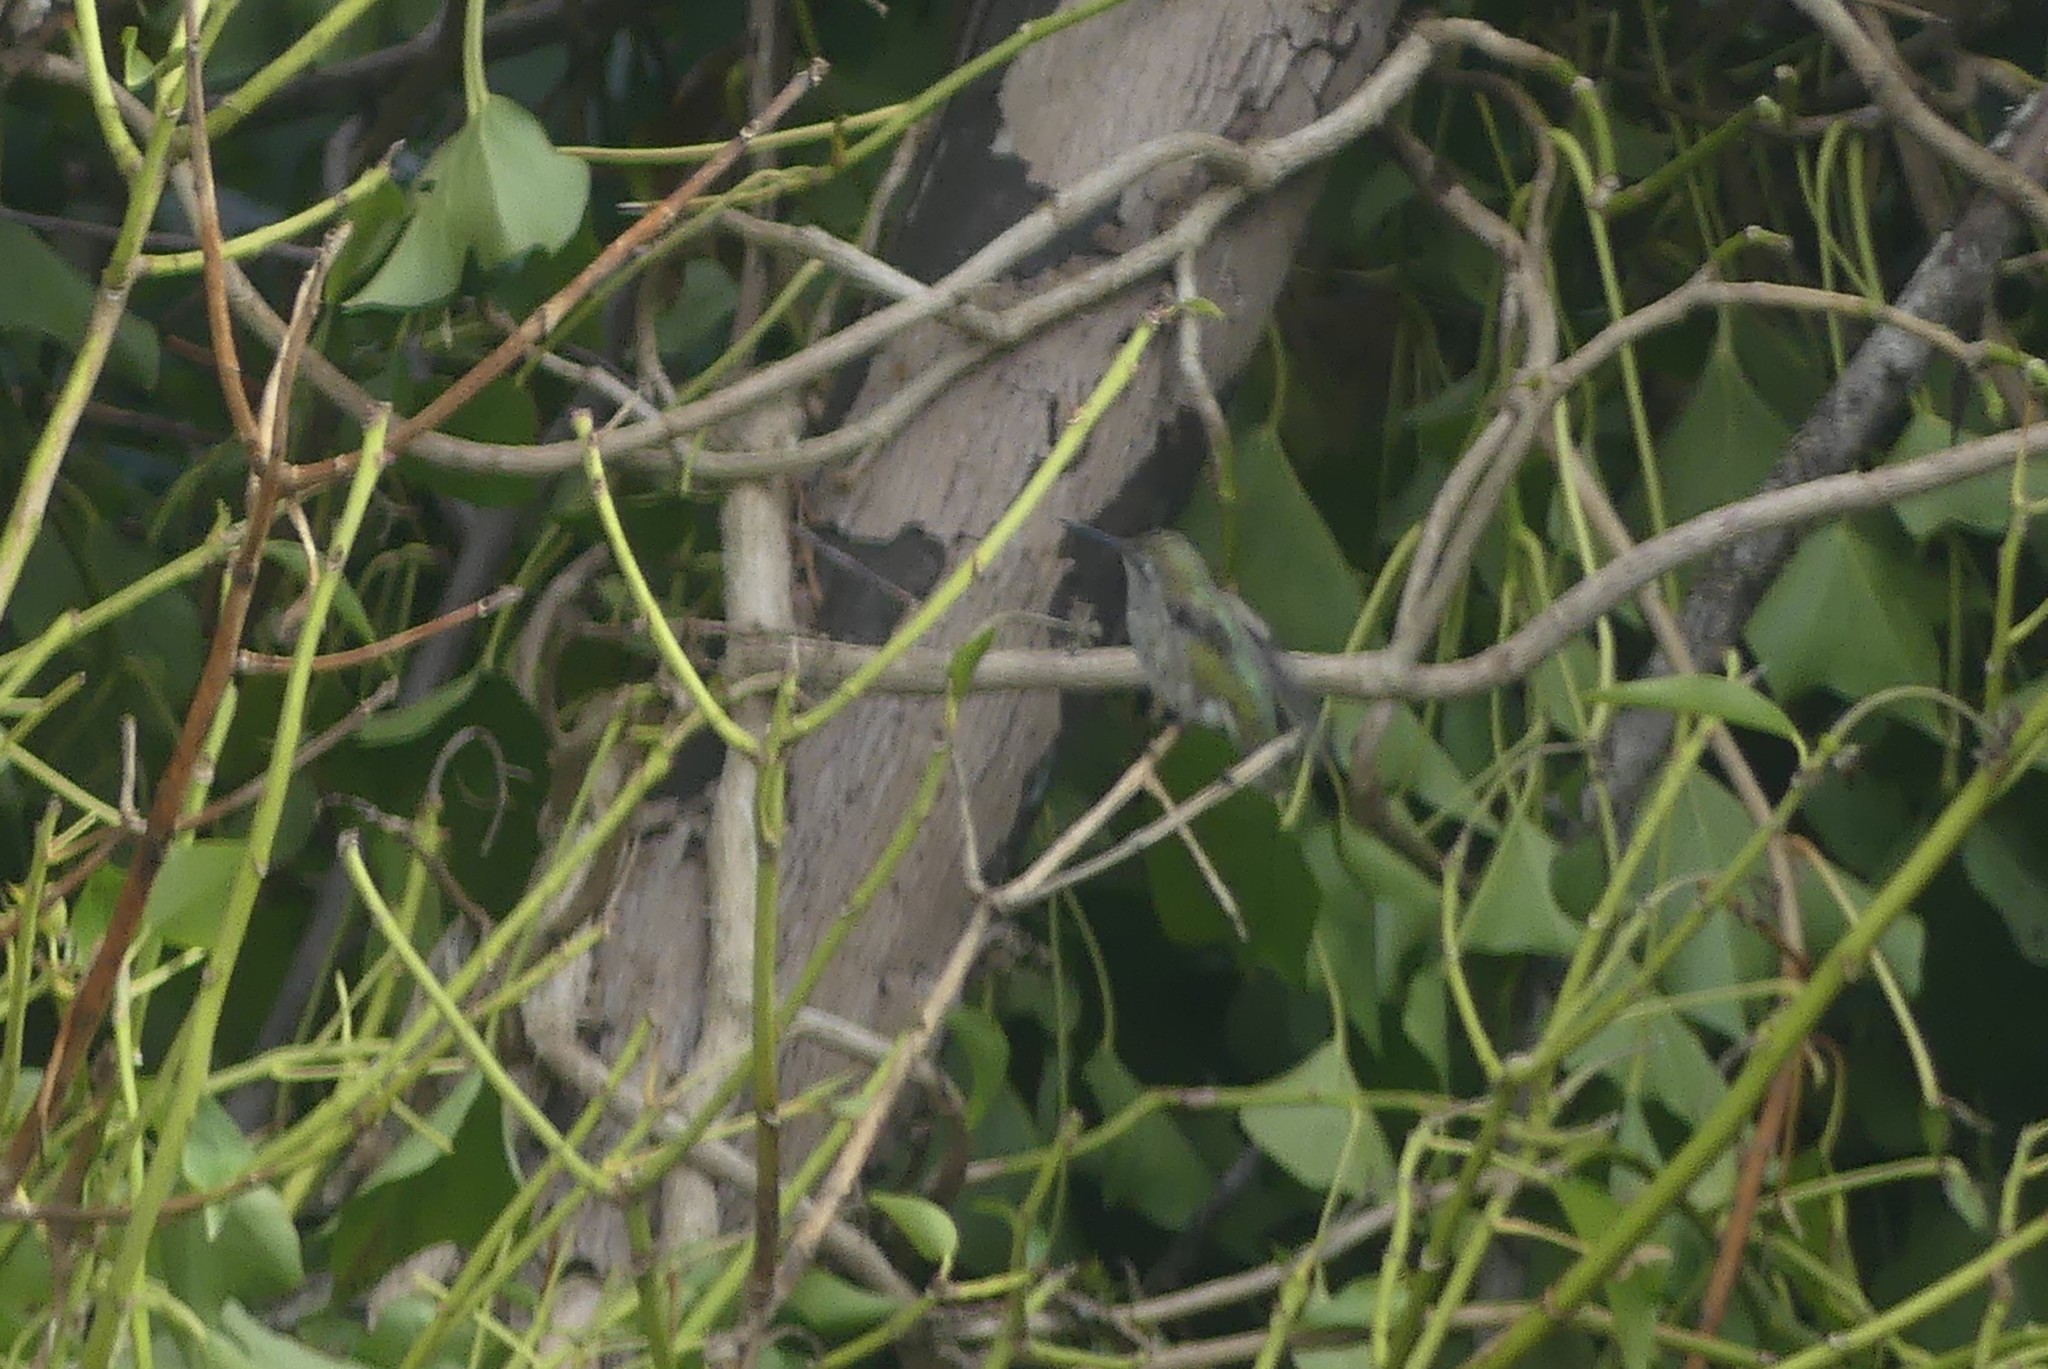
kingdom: Animalia
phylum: Chordata
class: Aves
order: Apodiformes
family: Trochilidae
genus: Calypte
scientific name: Calypte anna
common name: Anna's hummingbird
